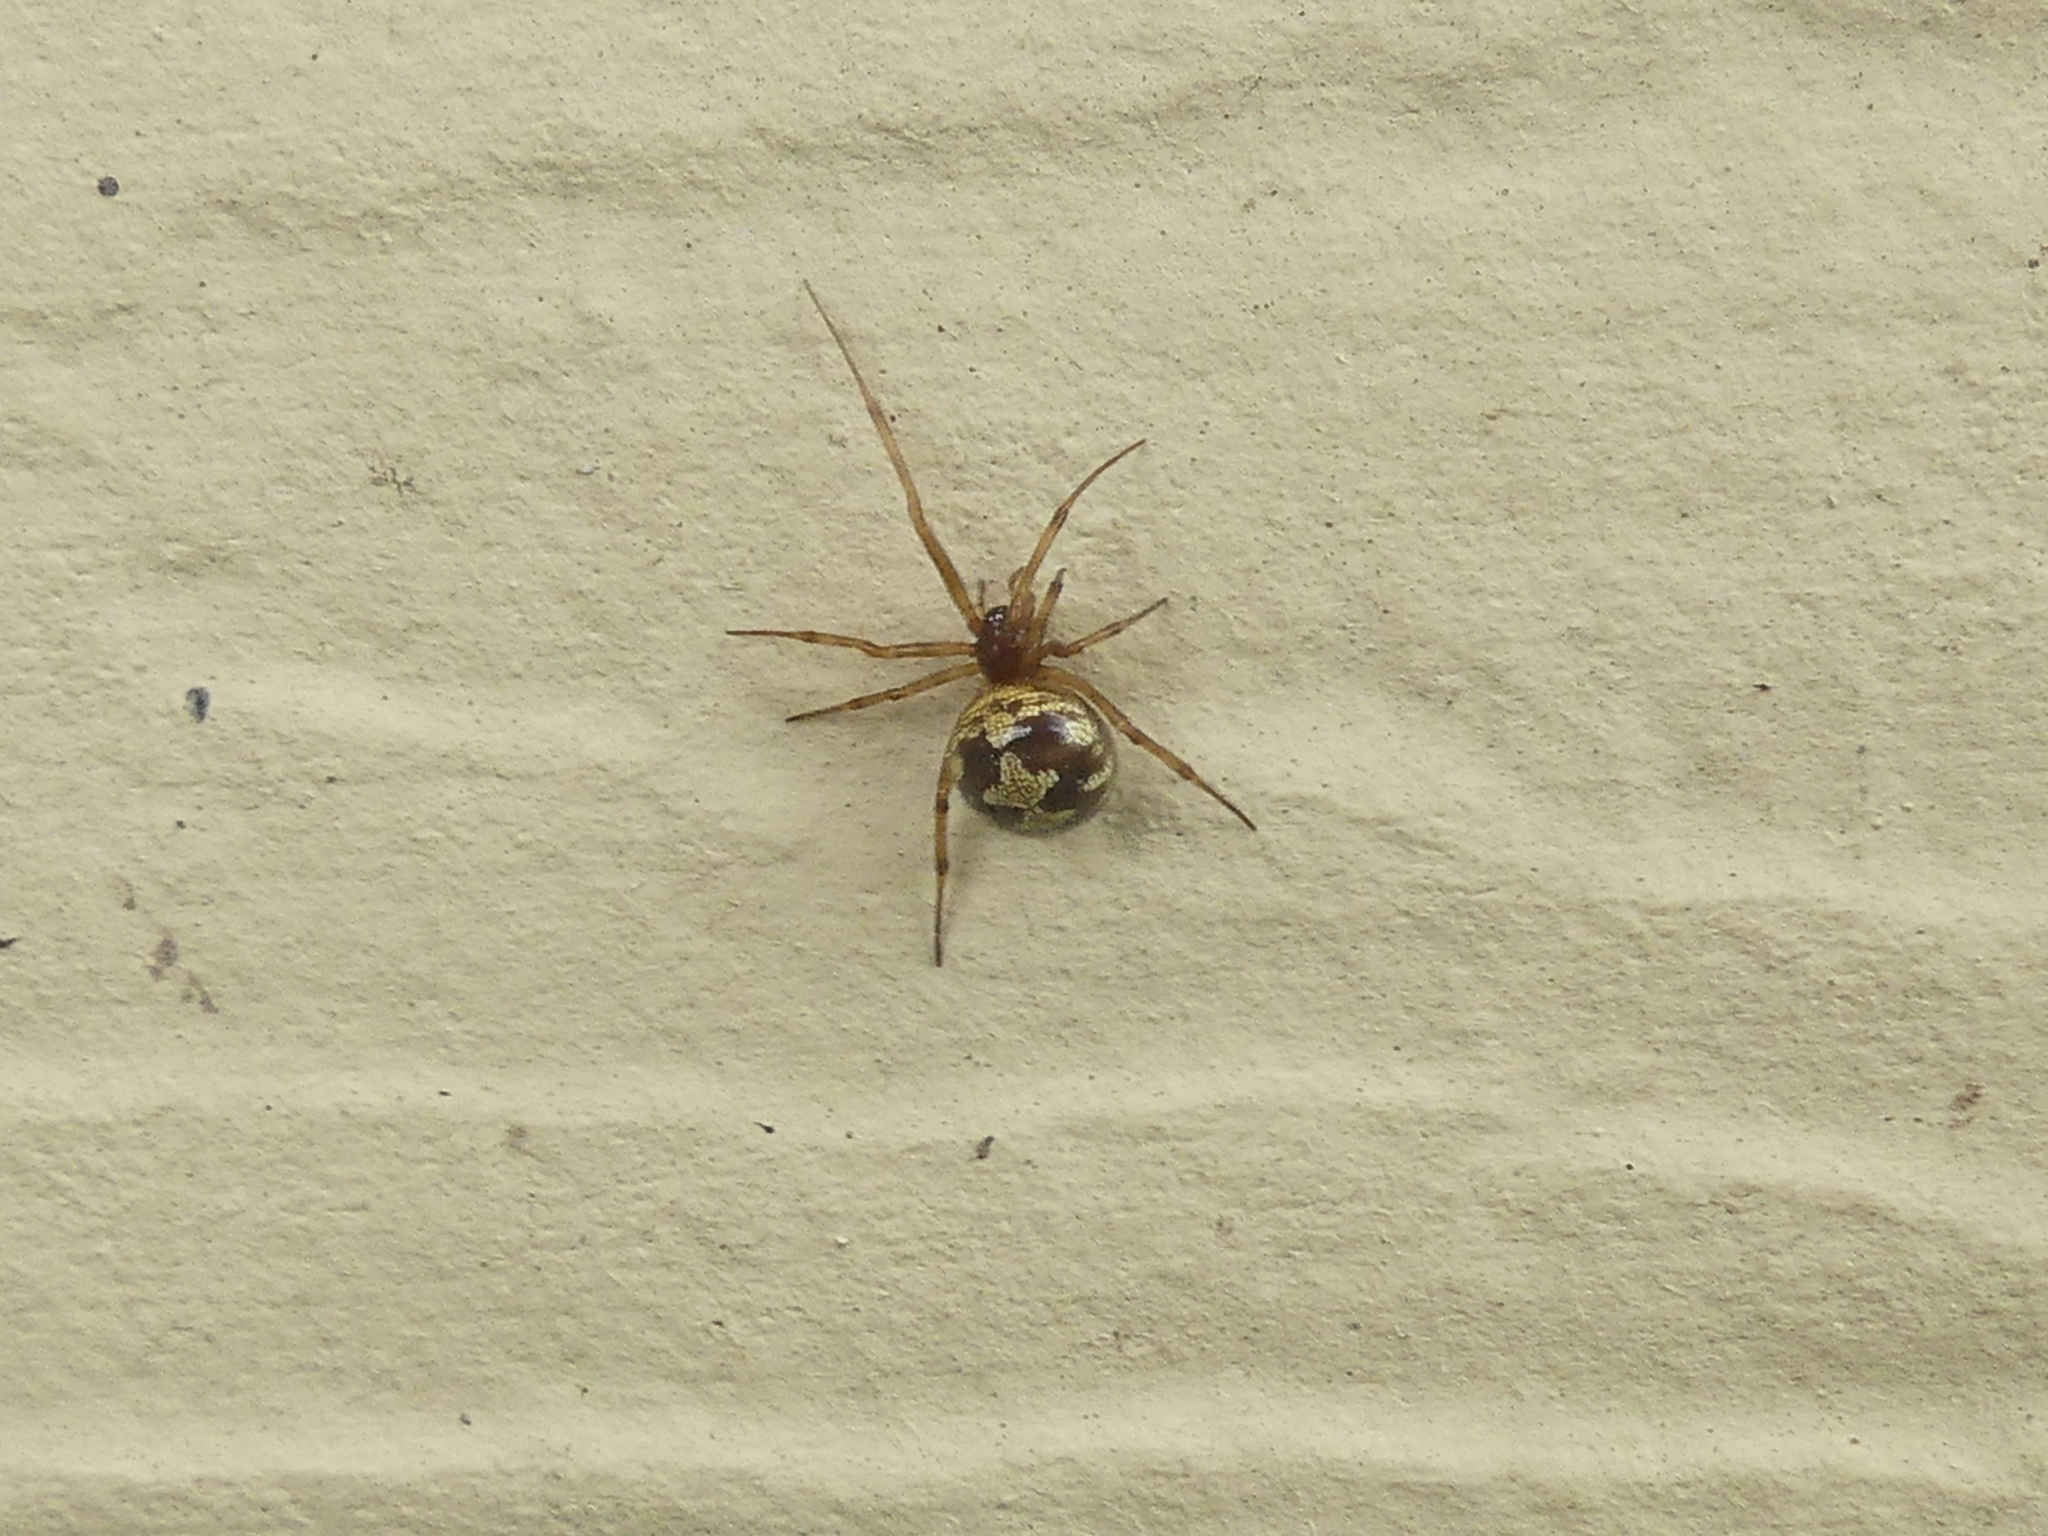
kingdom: Animalia
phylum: Arthropoda
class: Arachnida
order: Araneae
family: Theridiidae
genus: Steatoda
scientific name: Steatoda triangulosa
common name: Triangulate bud spider
